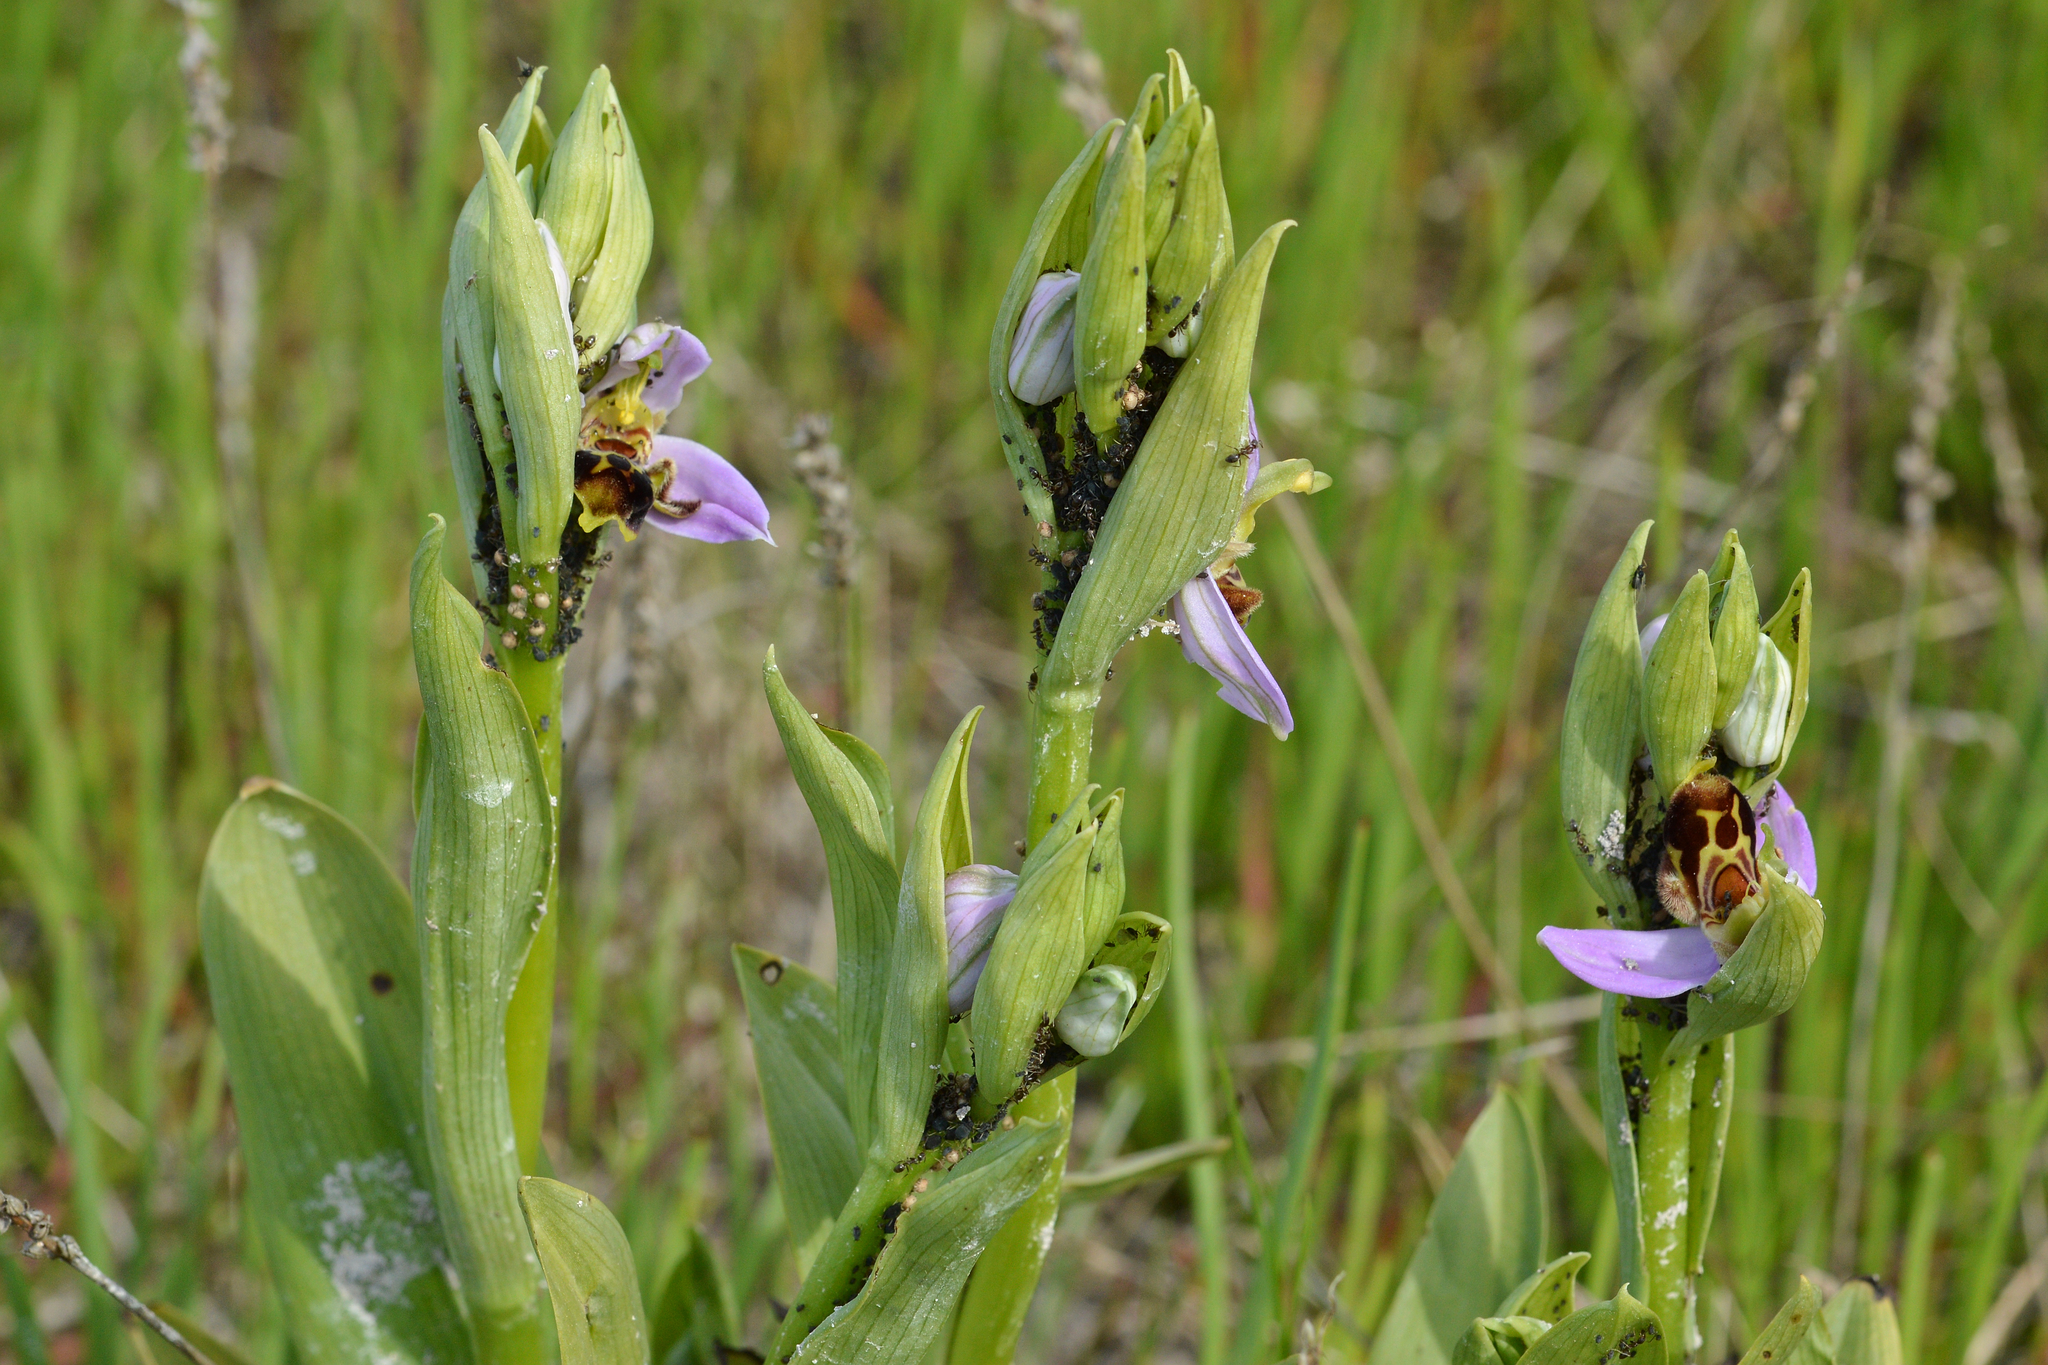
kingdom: Plantae
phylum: Tracheophyta
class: Liliopsida
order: Asparagales
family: Orchidaceae
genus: Ophrys
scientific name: Ophrys apifera
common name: Bee orchid
